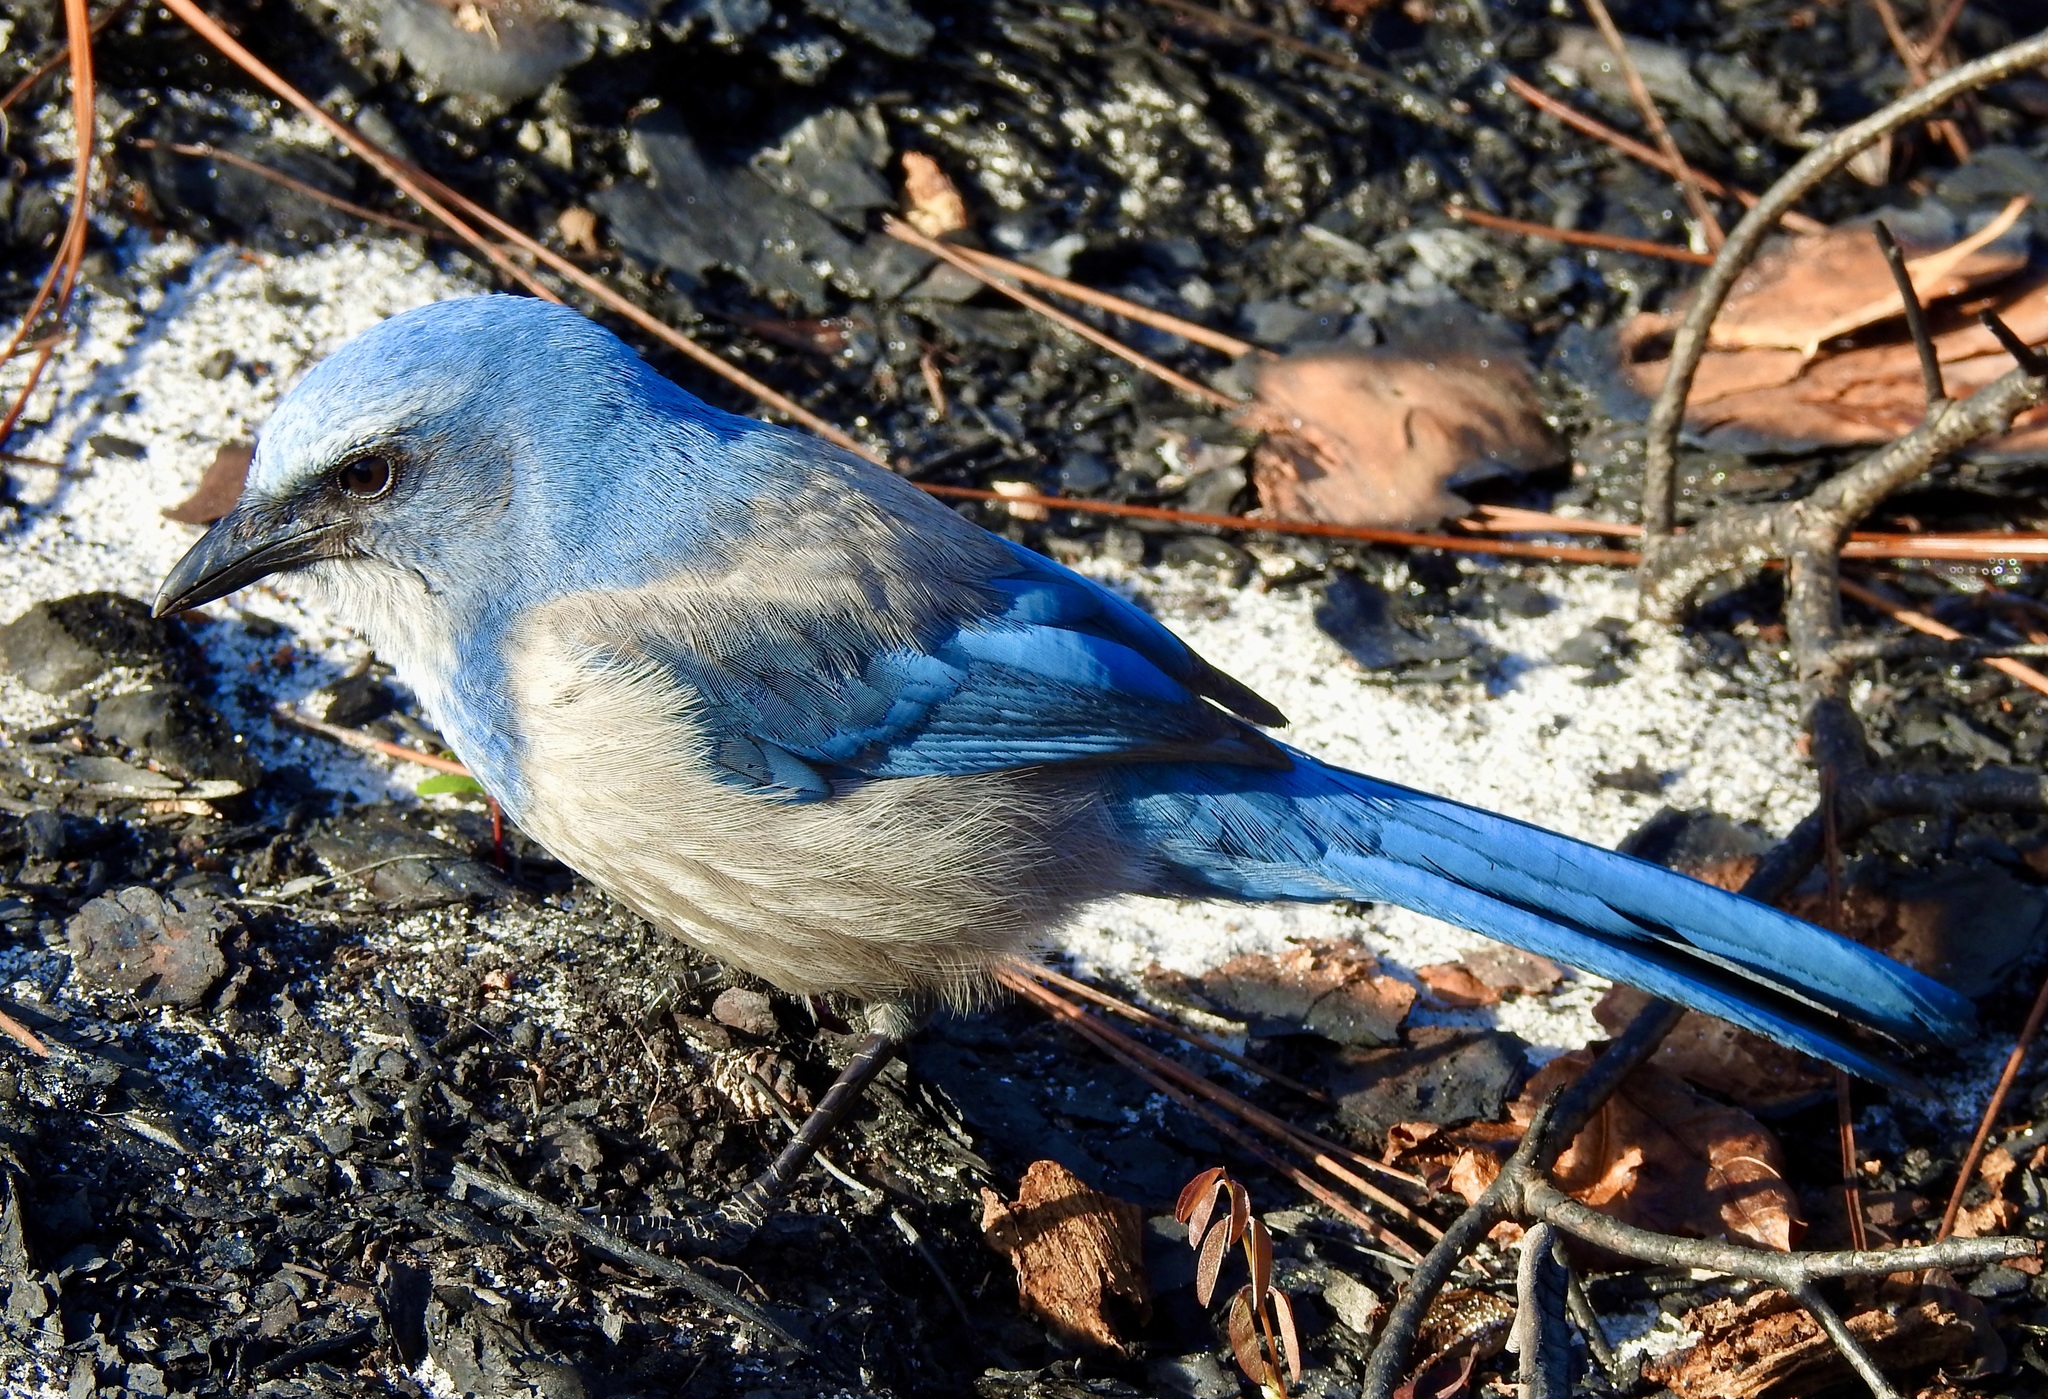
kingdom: Animalia
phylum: Chordata
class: Aves
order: Passeriformes
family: Corvidae
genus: Aphelocoma
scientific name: Aphelocoma coerulescens
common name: Florida scrub jay
